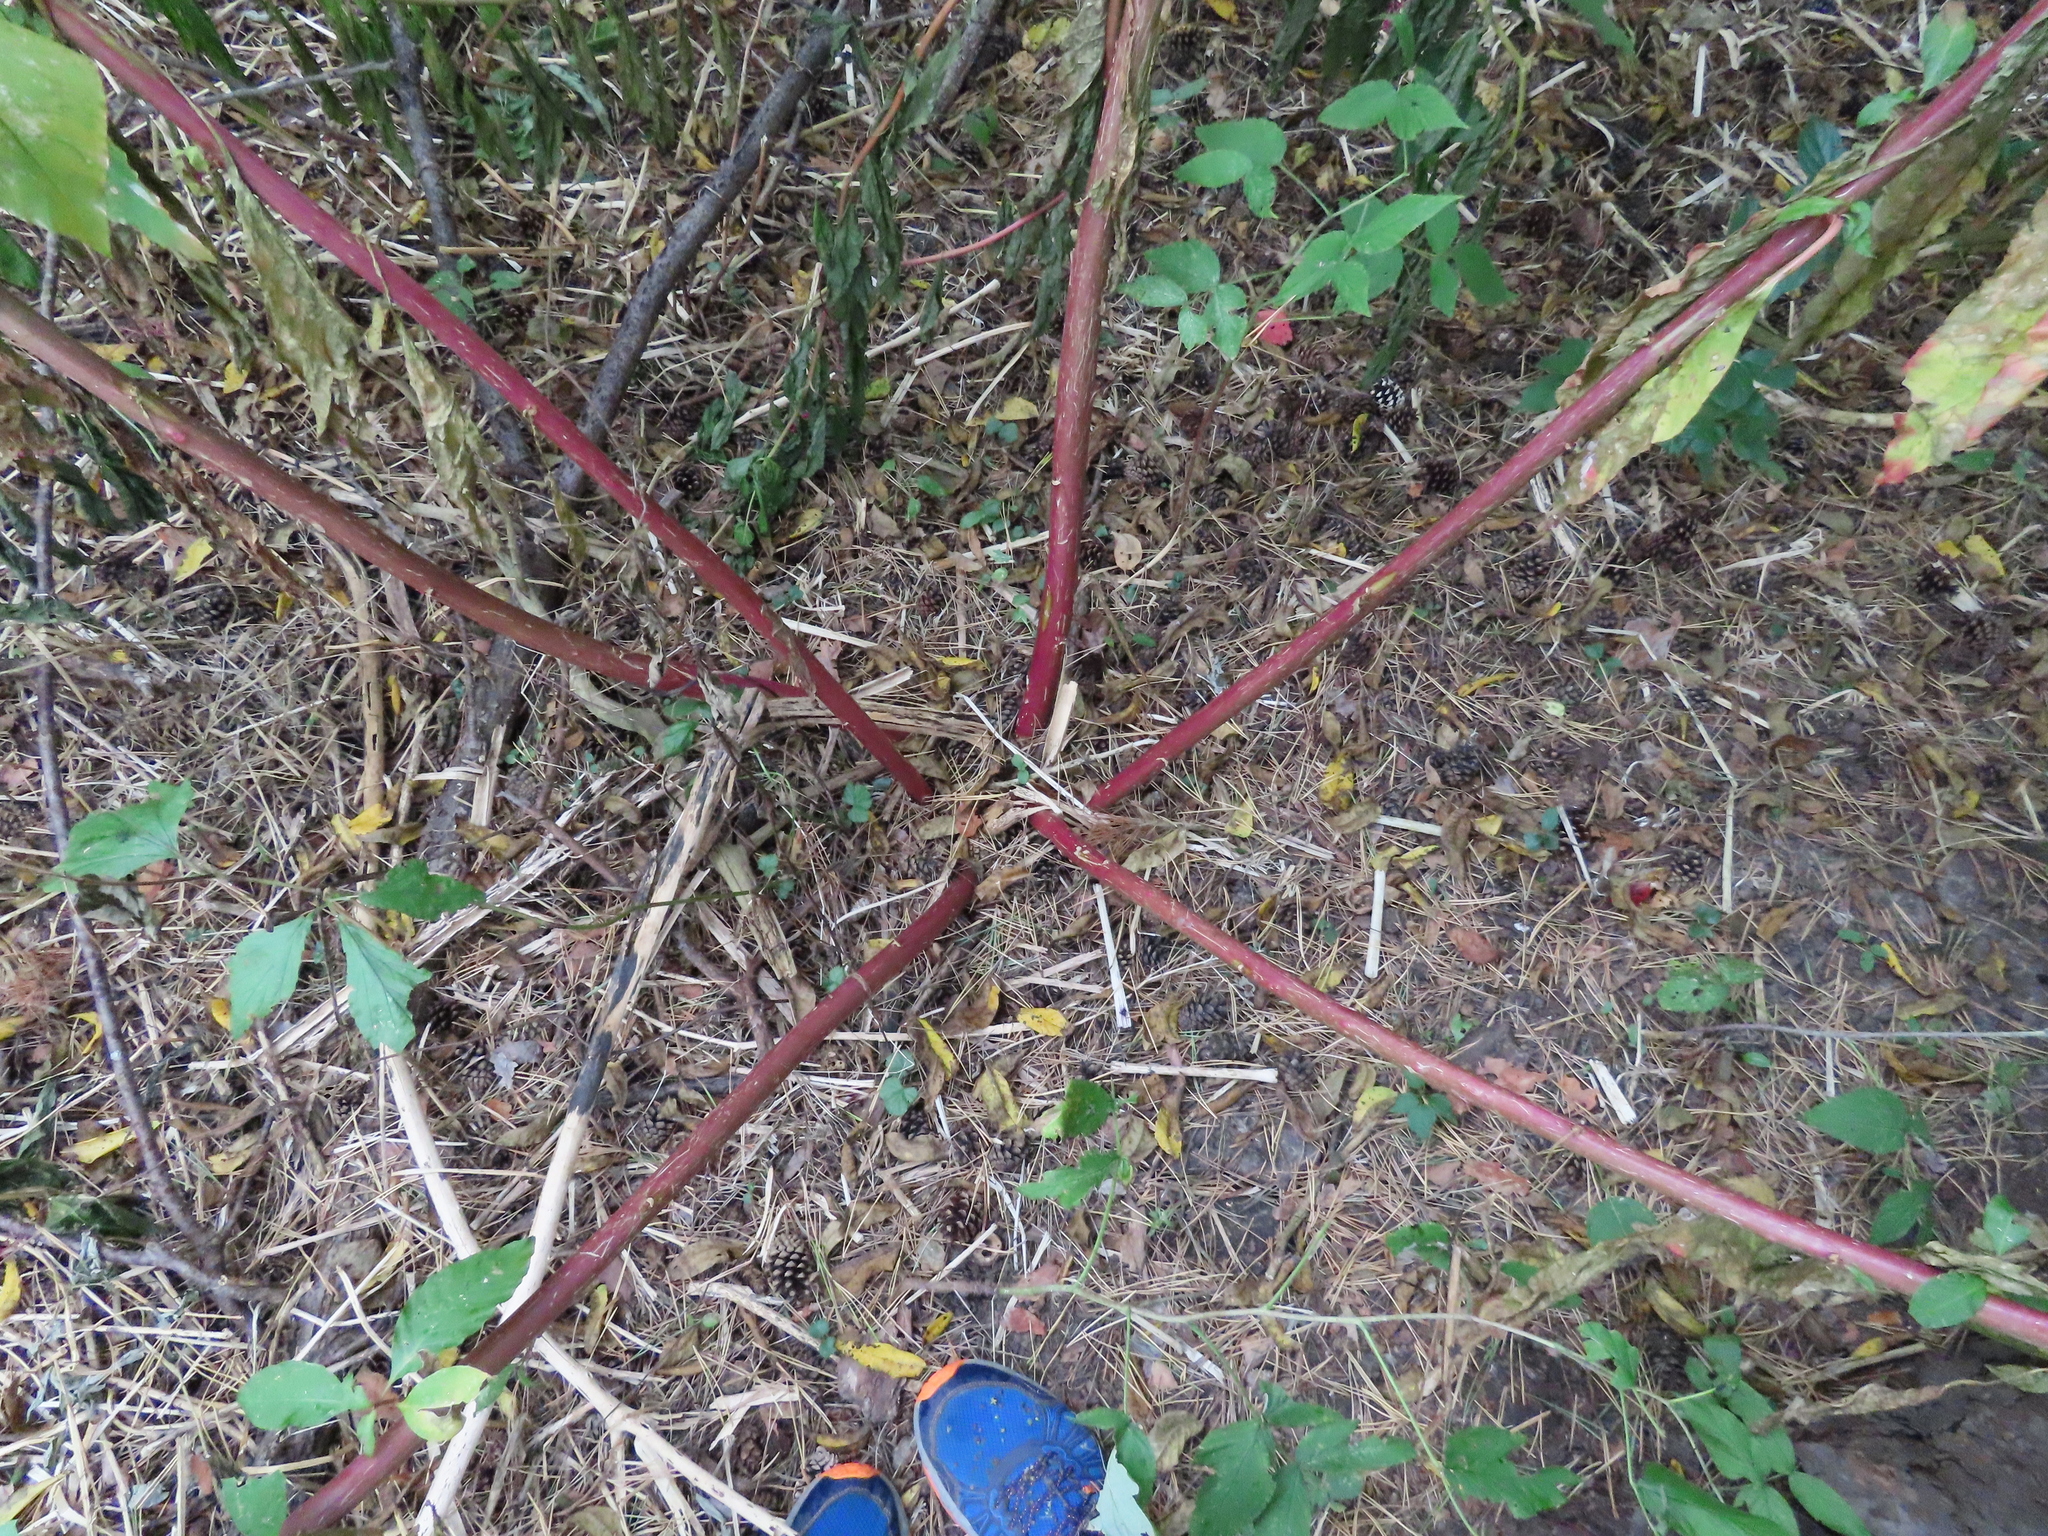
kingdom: Plantae
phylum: Tracheophyta
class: Magnoliopsida
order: Caryophyllales
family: Phytolaccaceae
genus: Phytolacca
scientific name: Phytolacca americana
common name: American pokeweed
